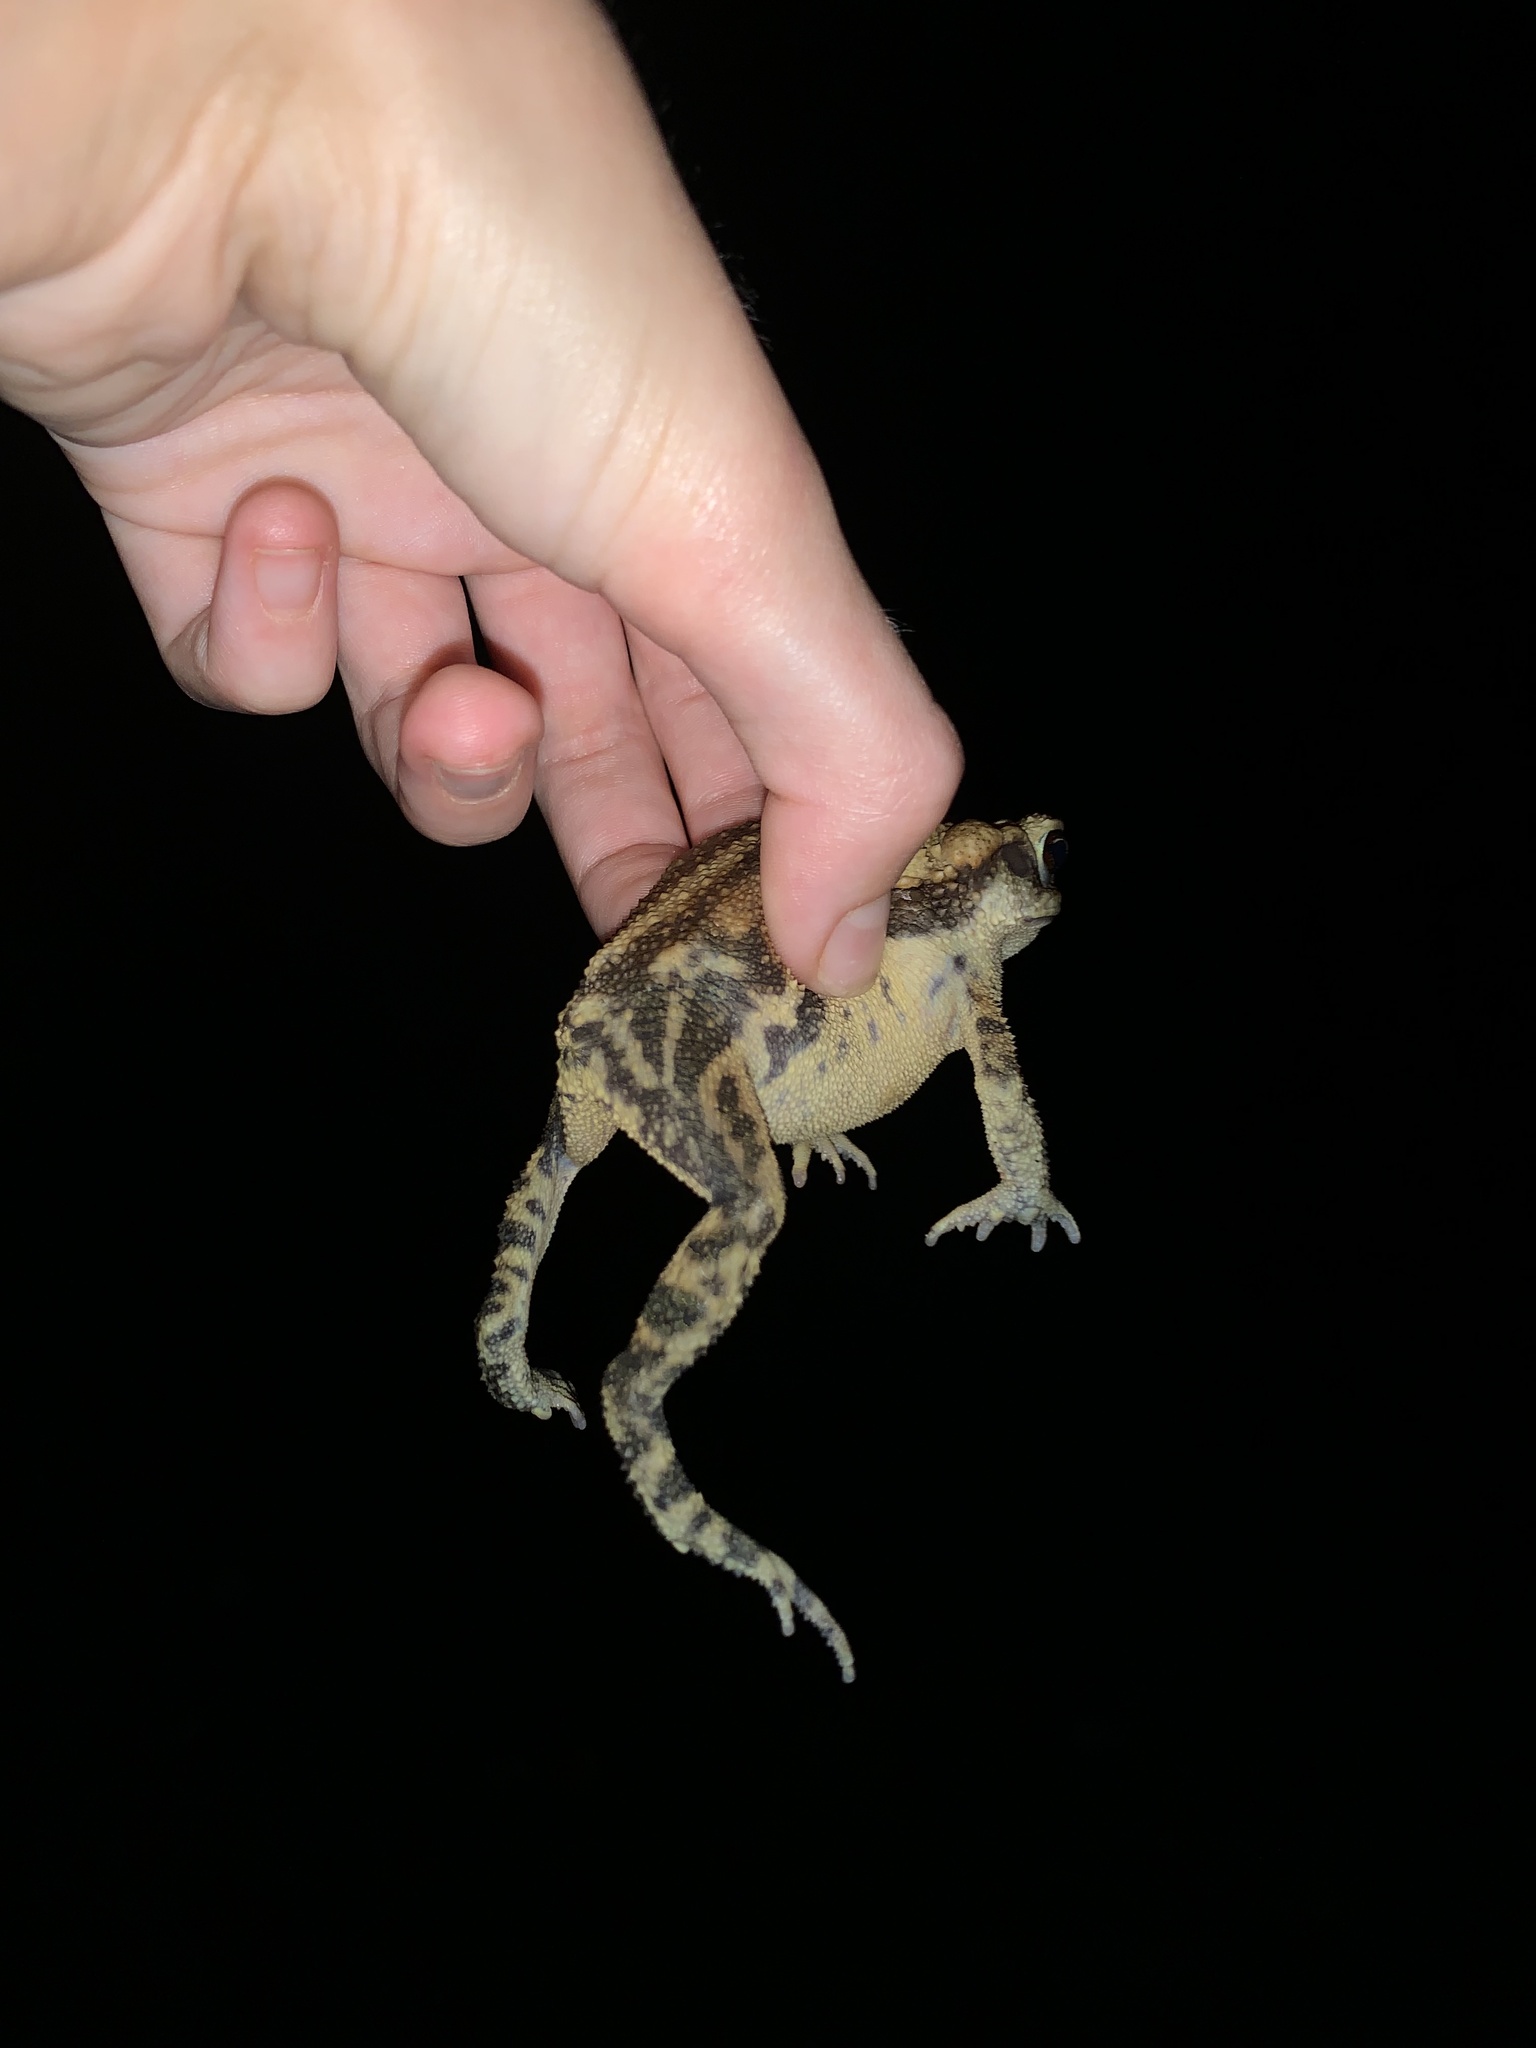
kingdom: Animalia
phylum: Chordata
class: Amphibia
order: Anura
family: Bufonidae
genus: Incilius
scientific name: Incilius nebulifer
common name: Gulf coast toad
